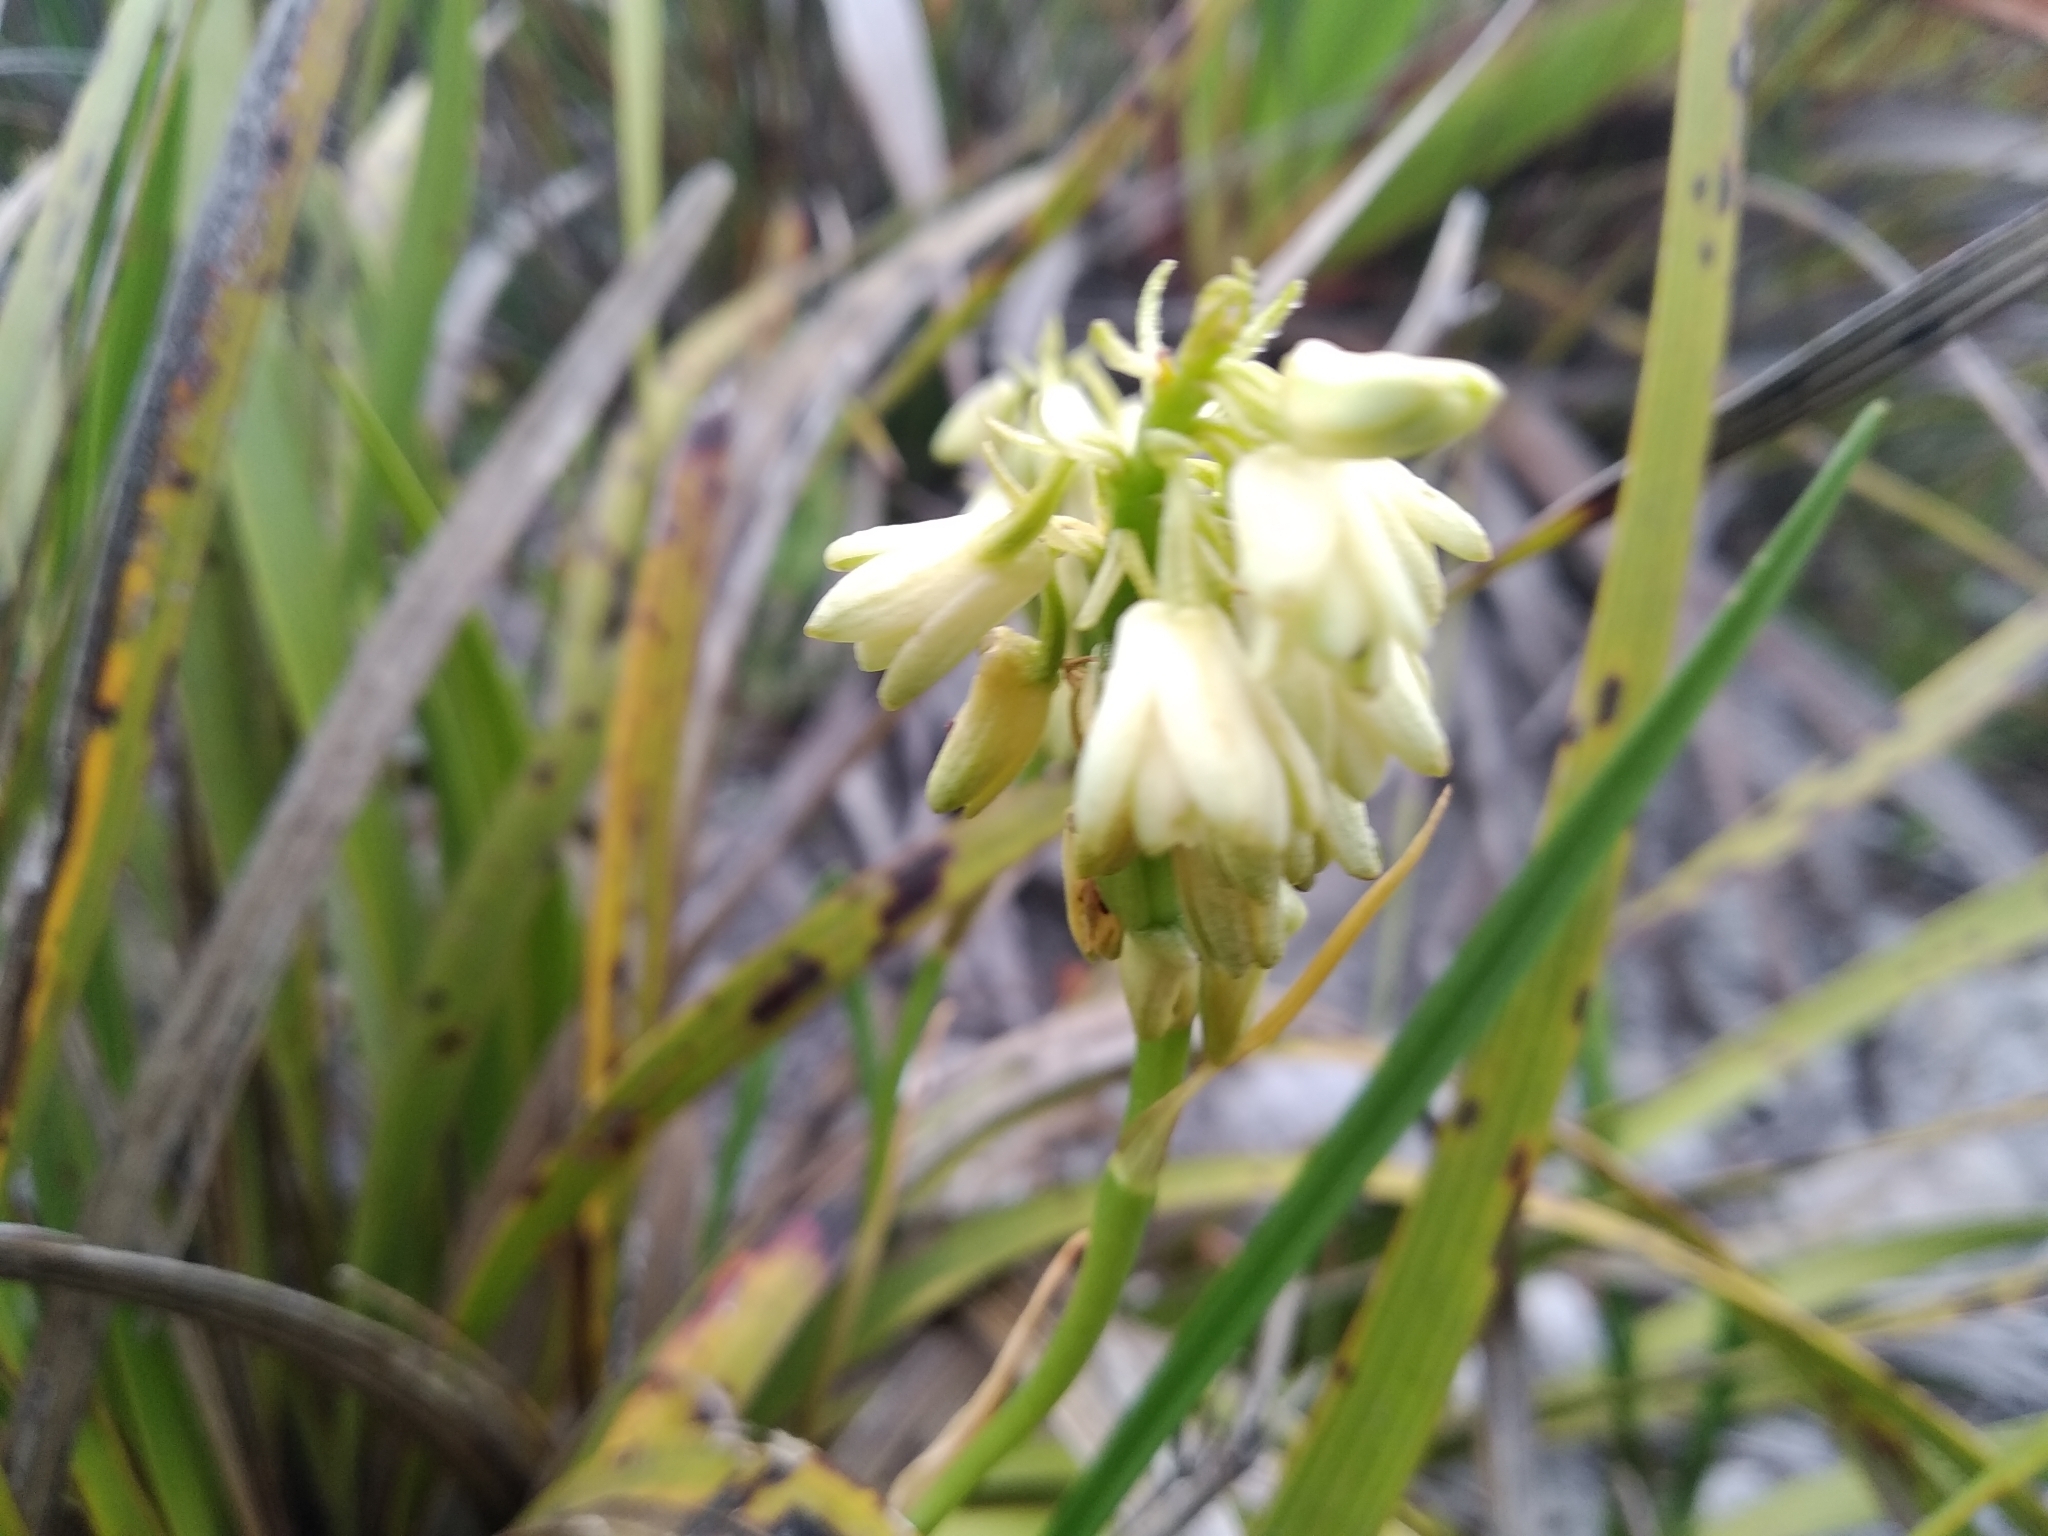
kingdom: Plantae
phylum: Tracheophyta
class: Liliopsida
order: Asparagales
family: Orchidaceae
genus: Eulophia
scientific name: Eulophia aculeata
